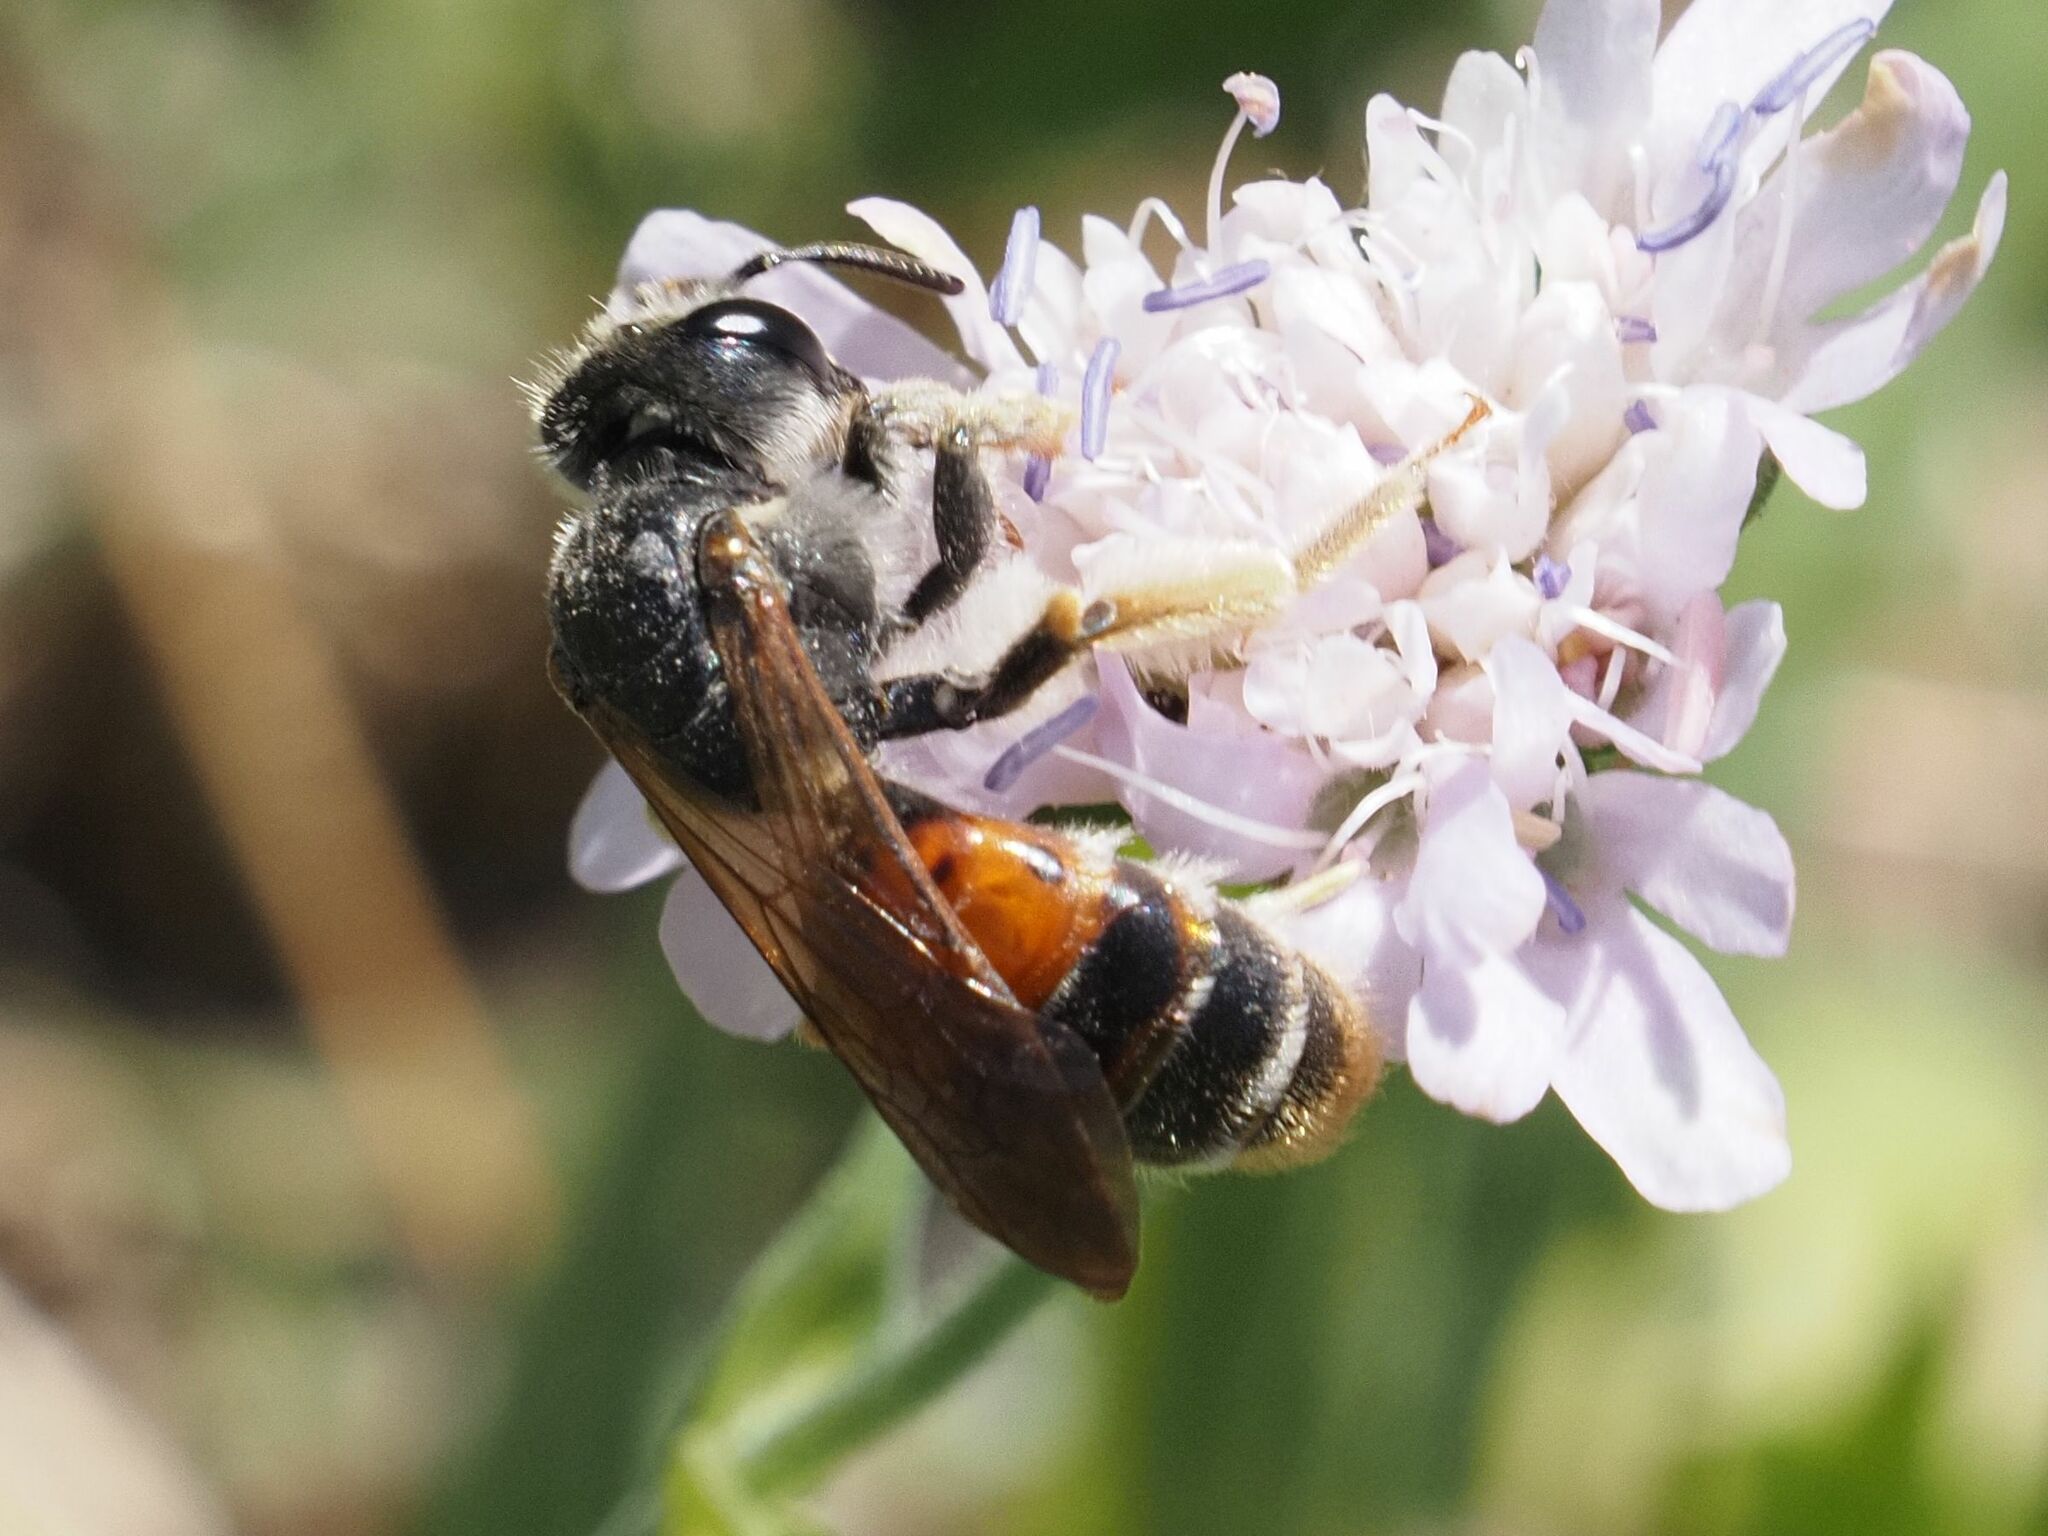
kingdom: Animalia
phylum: Arthropoda
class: Insecta
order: Hymenoptera
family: Andrenidae
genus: Andrena
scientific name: Andrena hattorfiana
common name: Large scabious mining bee
